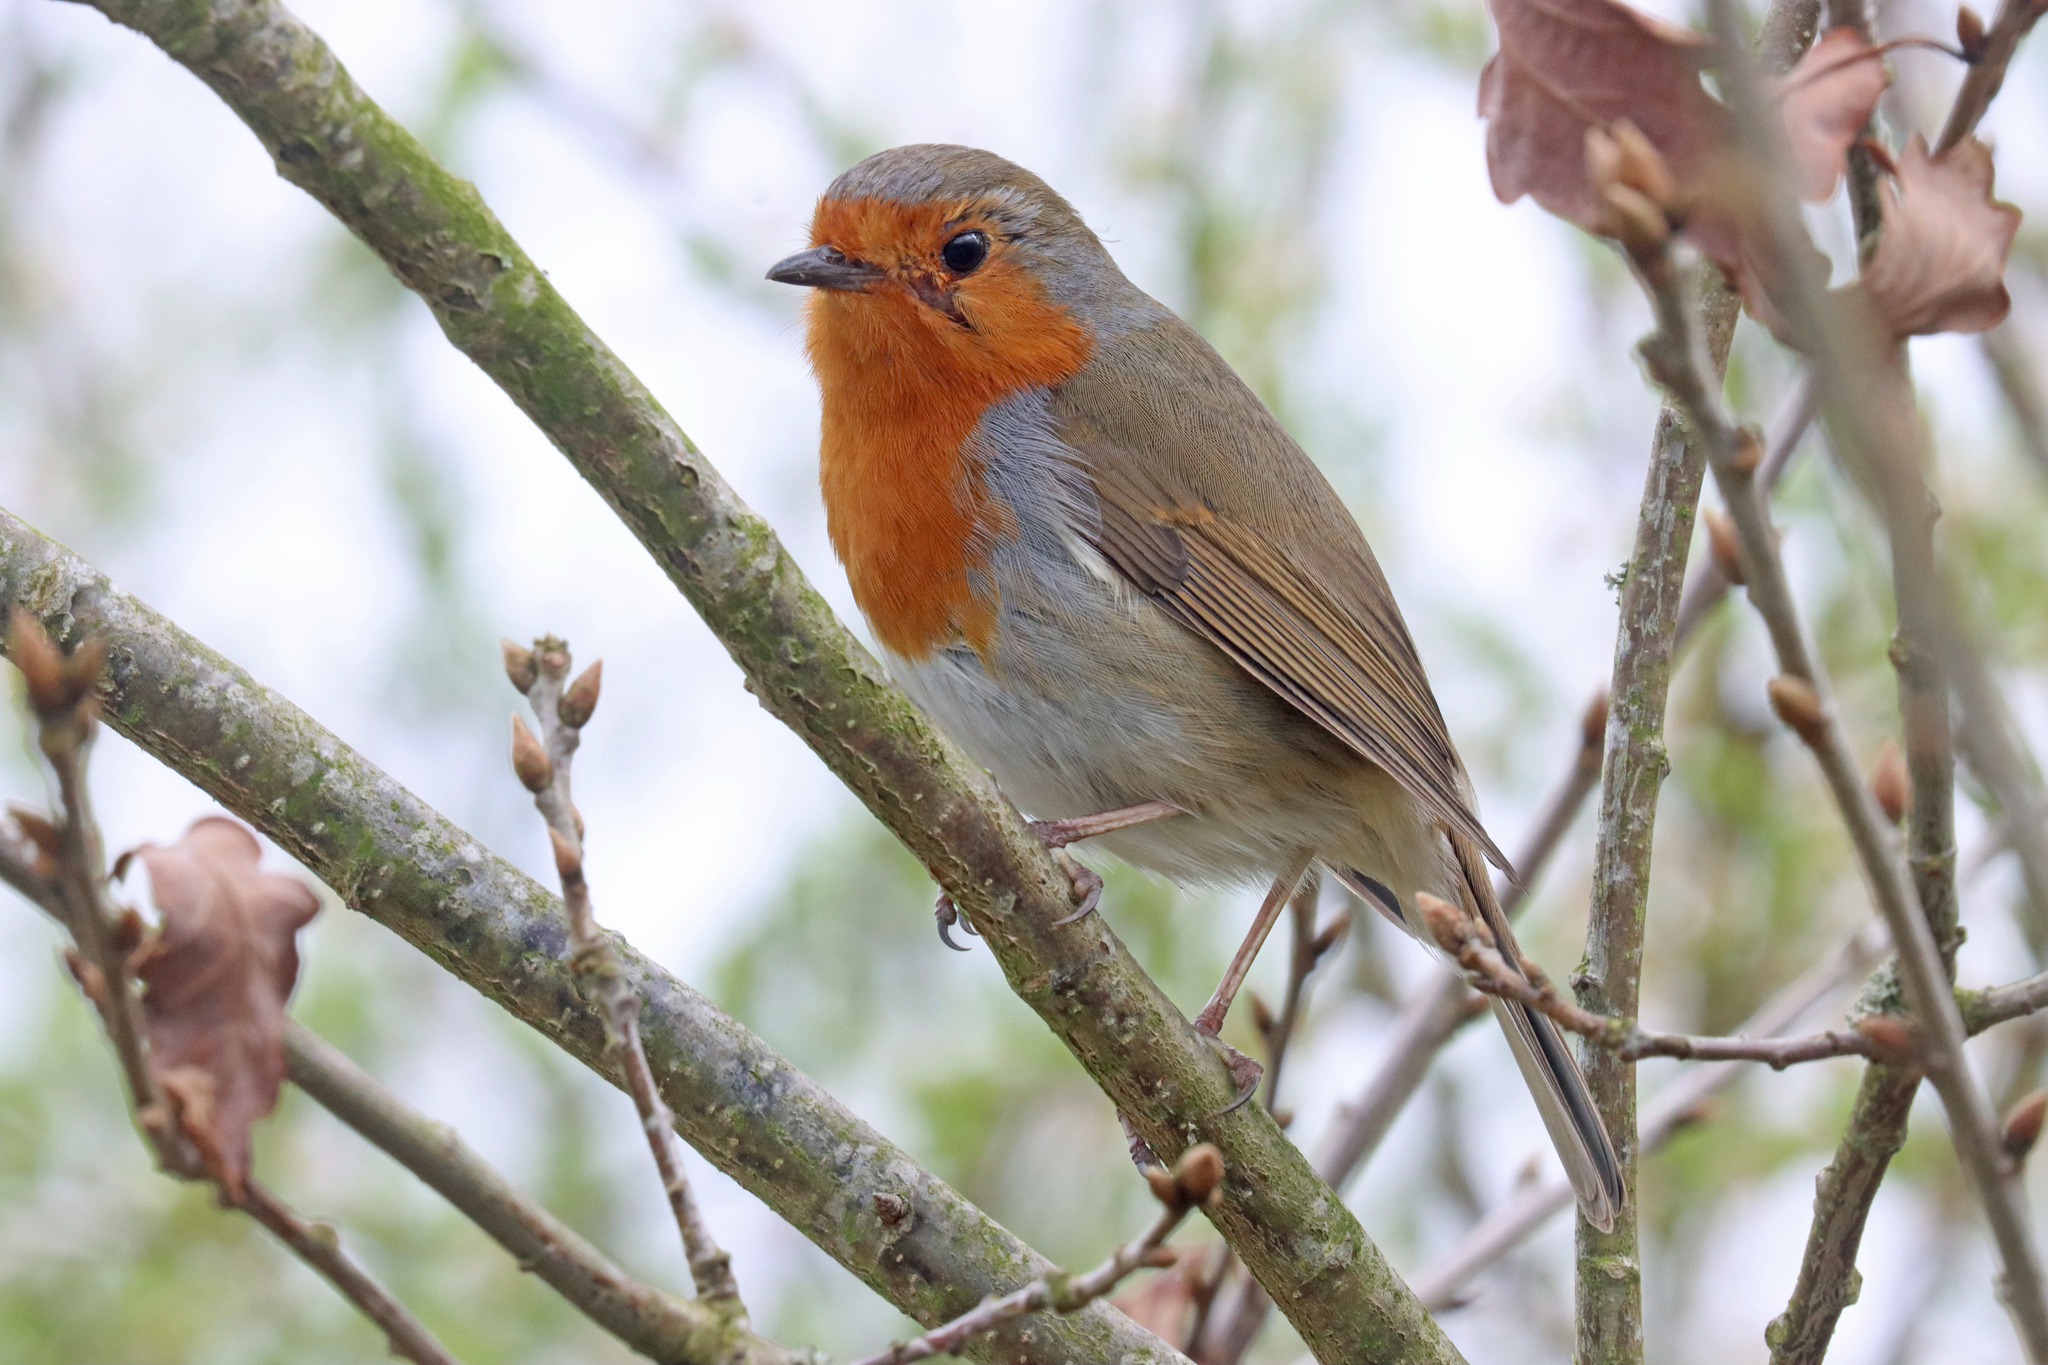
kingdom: Animalia
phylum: Chordata
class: Aves
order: Passeriformes
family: Muscicapidae
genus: Erithacus
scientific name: Erithacus rubecula
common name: European robin
